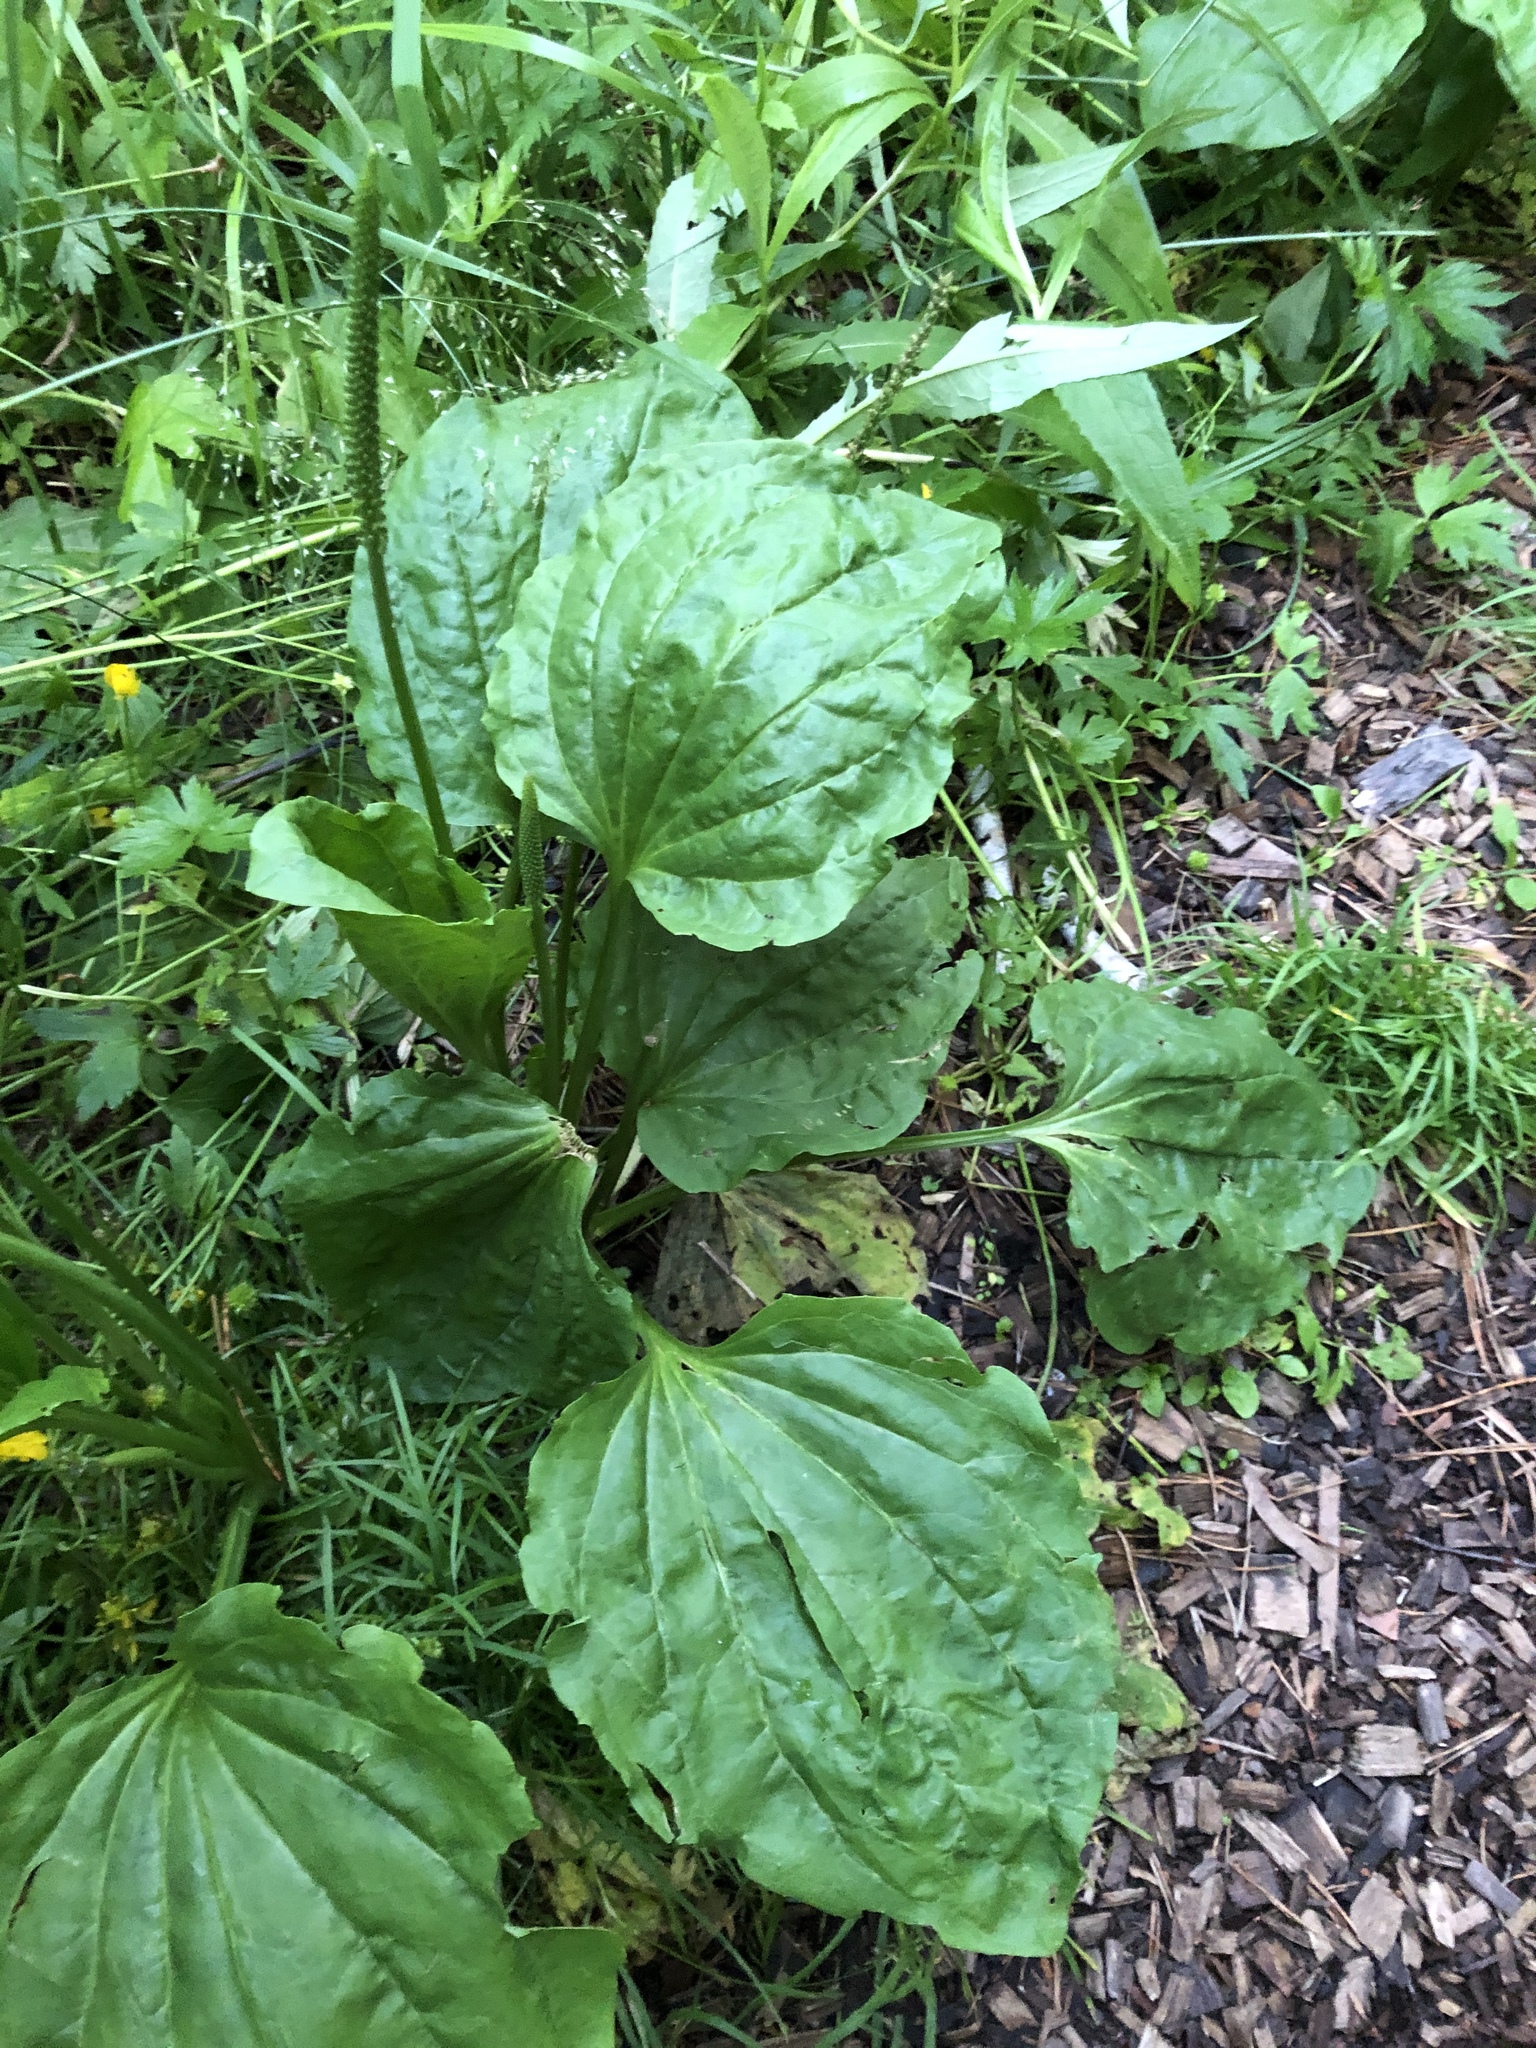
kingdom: Plantae
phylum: Tracheophyta
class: Magnoliopsida
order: Lamiales
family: Plantaginaceae
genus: Plantago
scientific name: Plantago major
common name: Common plantain
